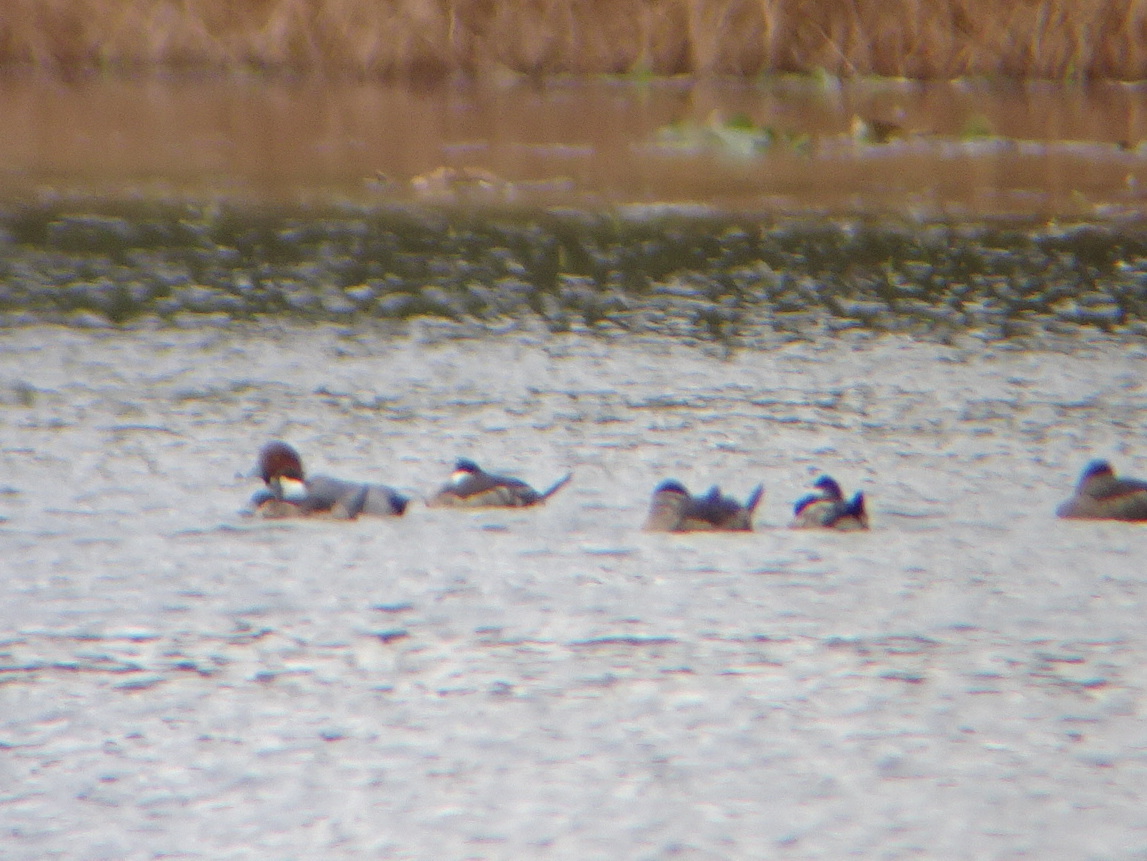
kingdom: Animalia
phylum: Chordata
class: Aves
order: Anseriformes
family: Anatidae
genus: Aythya
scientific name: Aythya americana
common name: Redhead
